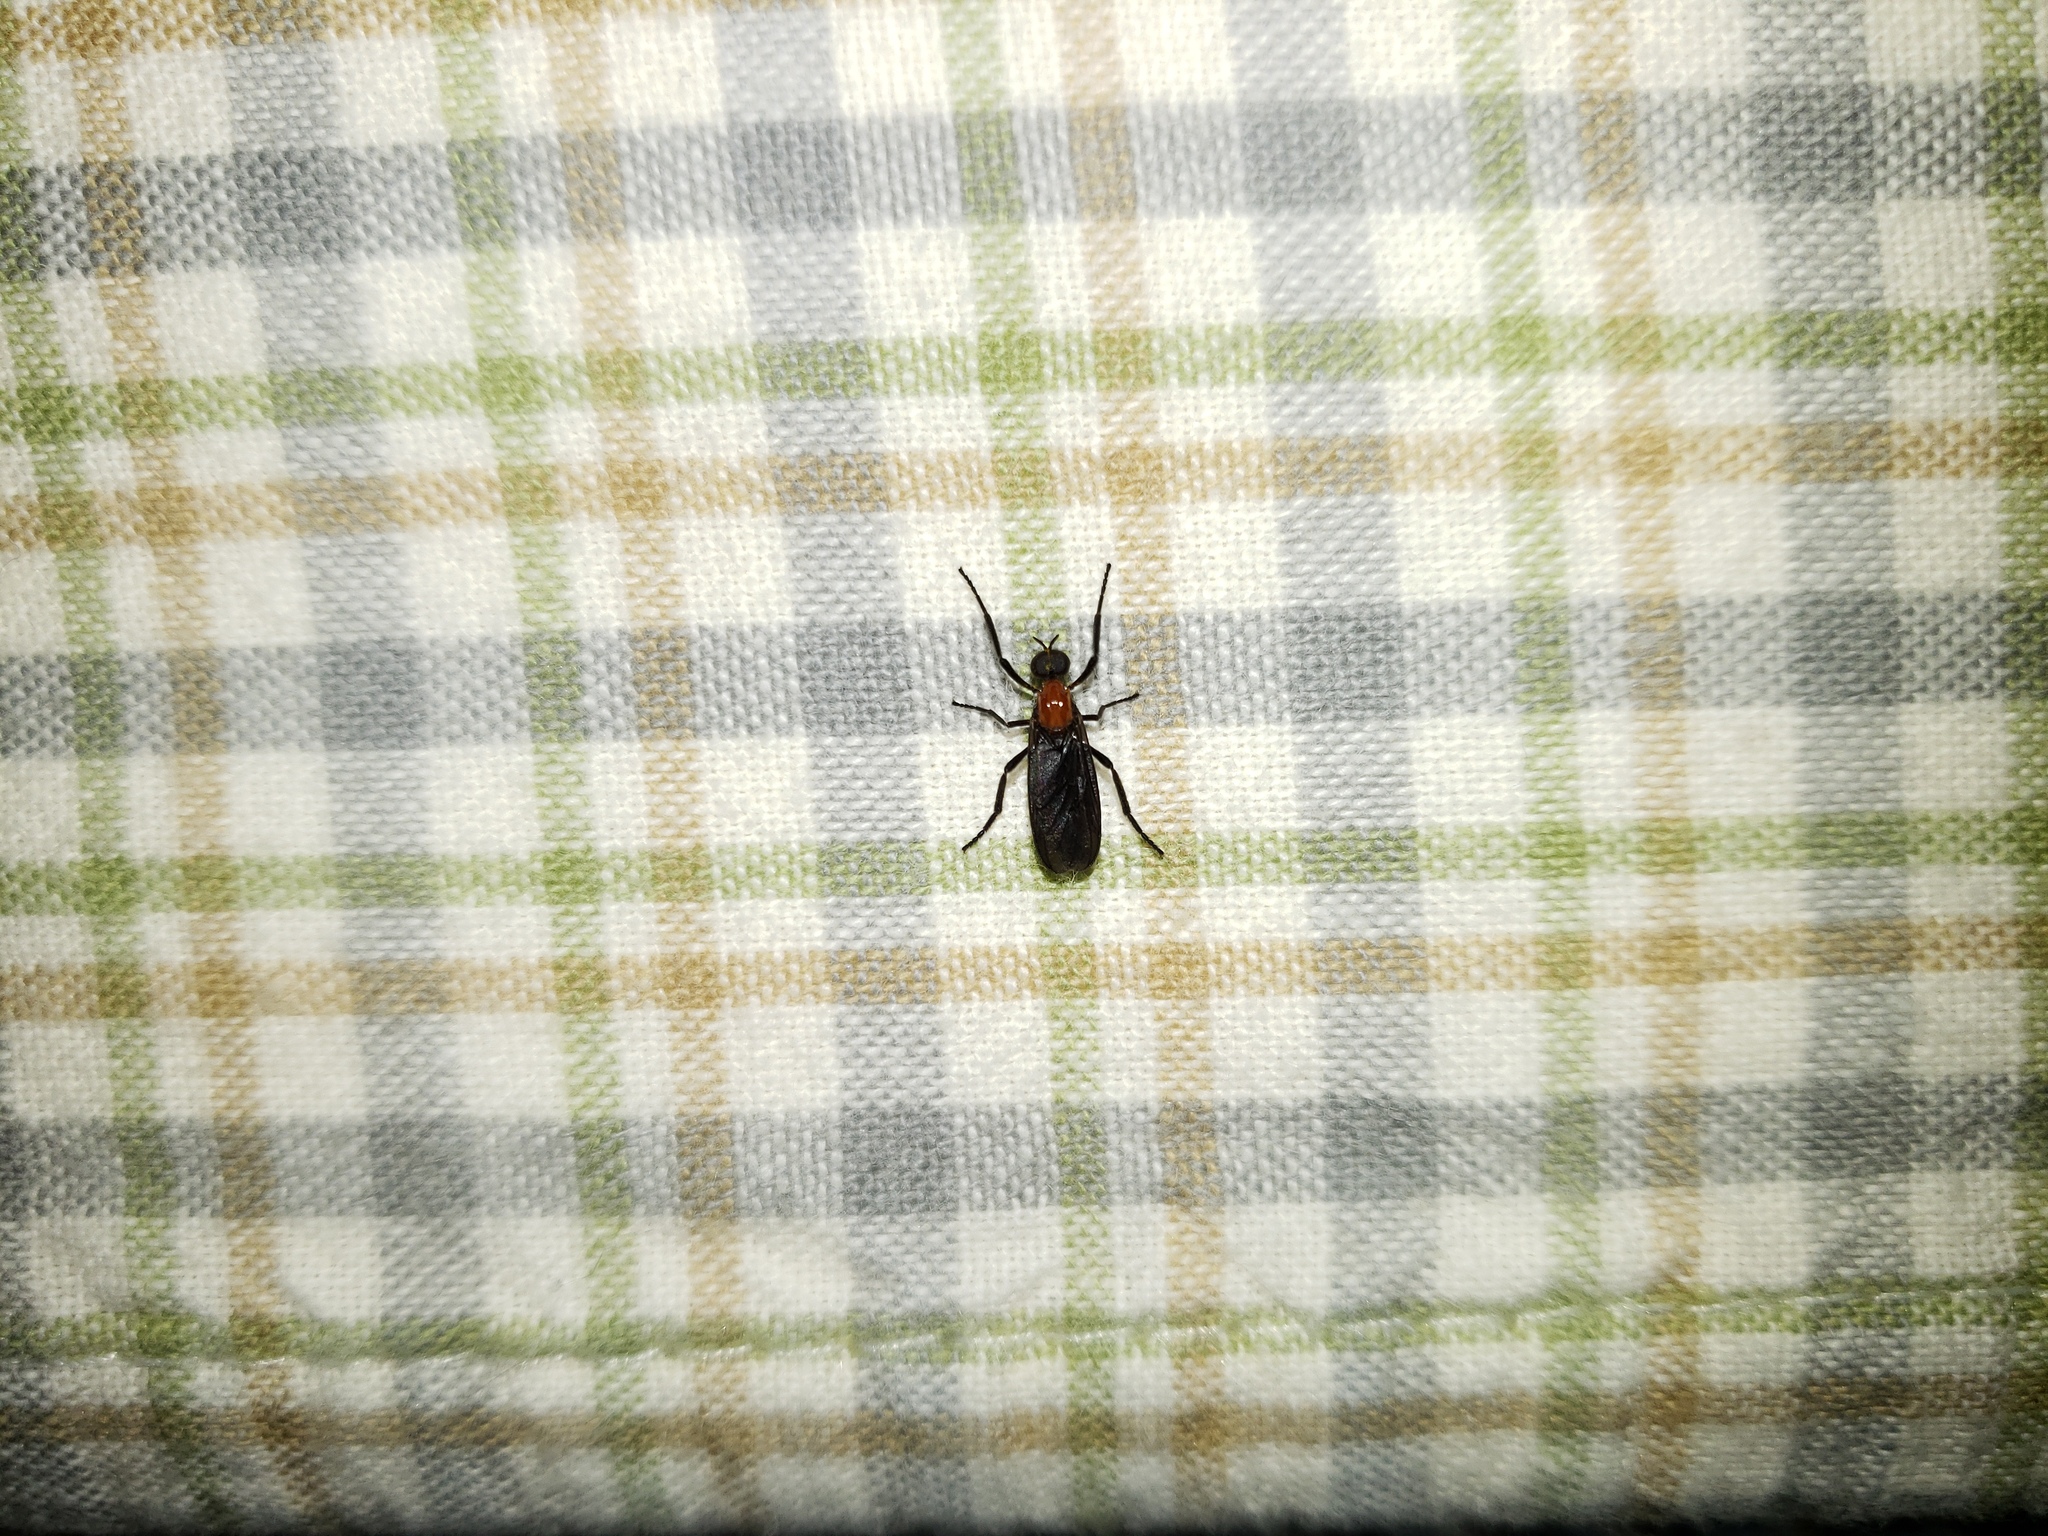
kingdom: Animalia
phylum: Arthropoda
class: Insecta
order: Diptera
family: Bibionidae
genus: Plecia
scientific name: Plecia nearctica
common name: March fly
